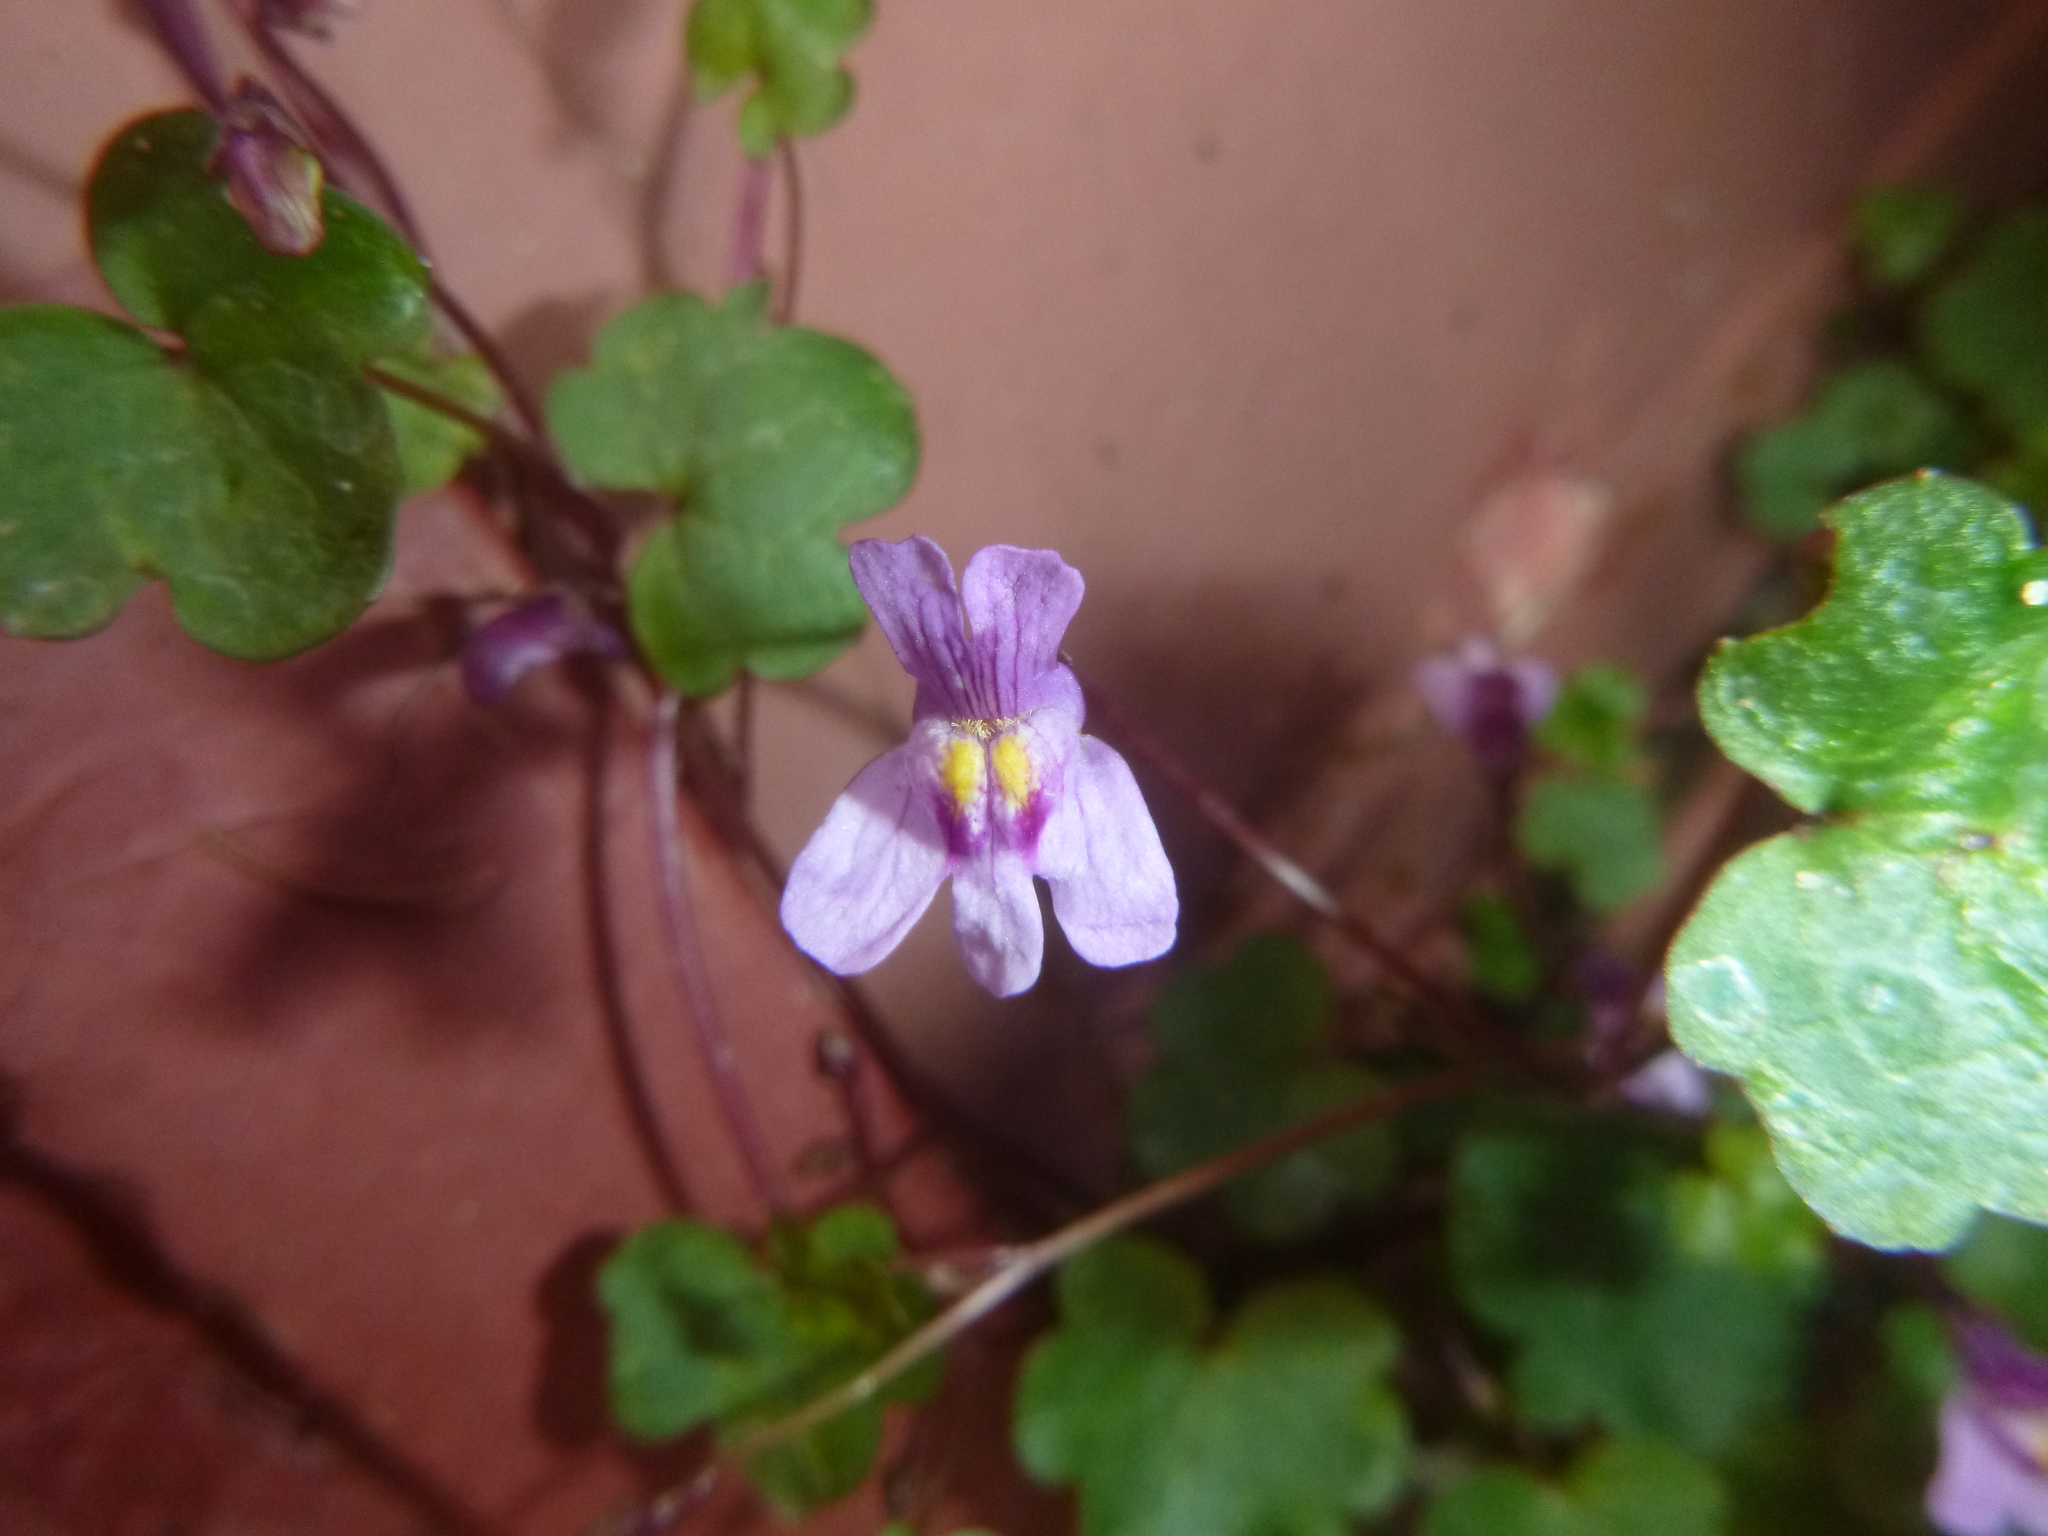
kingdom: Plantae
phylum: Tracheophyta
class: Magnoliopsida
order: Lamiales
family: Plantaginaceae
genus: Cymbalaria
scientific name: Cymbalaria muralis
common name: Ivy-leaved toadflax
